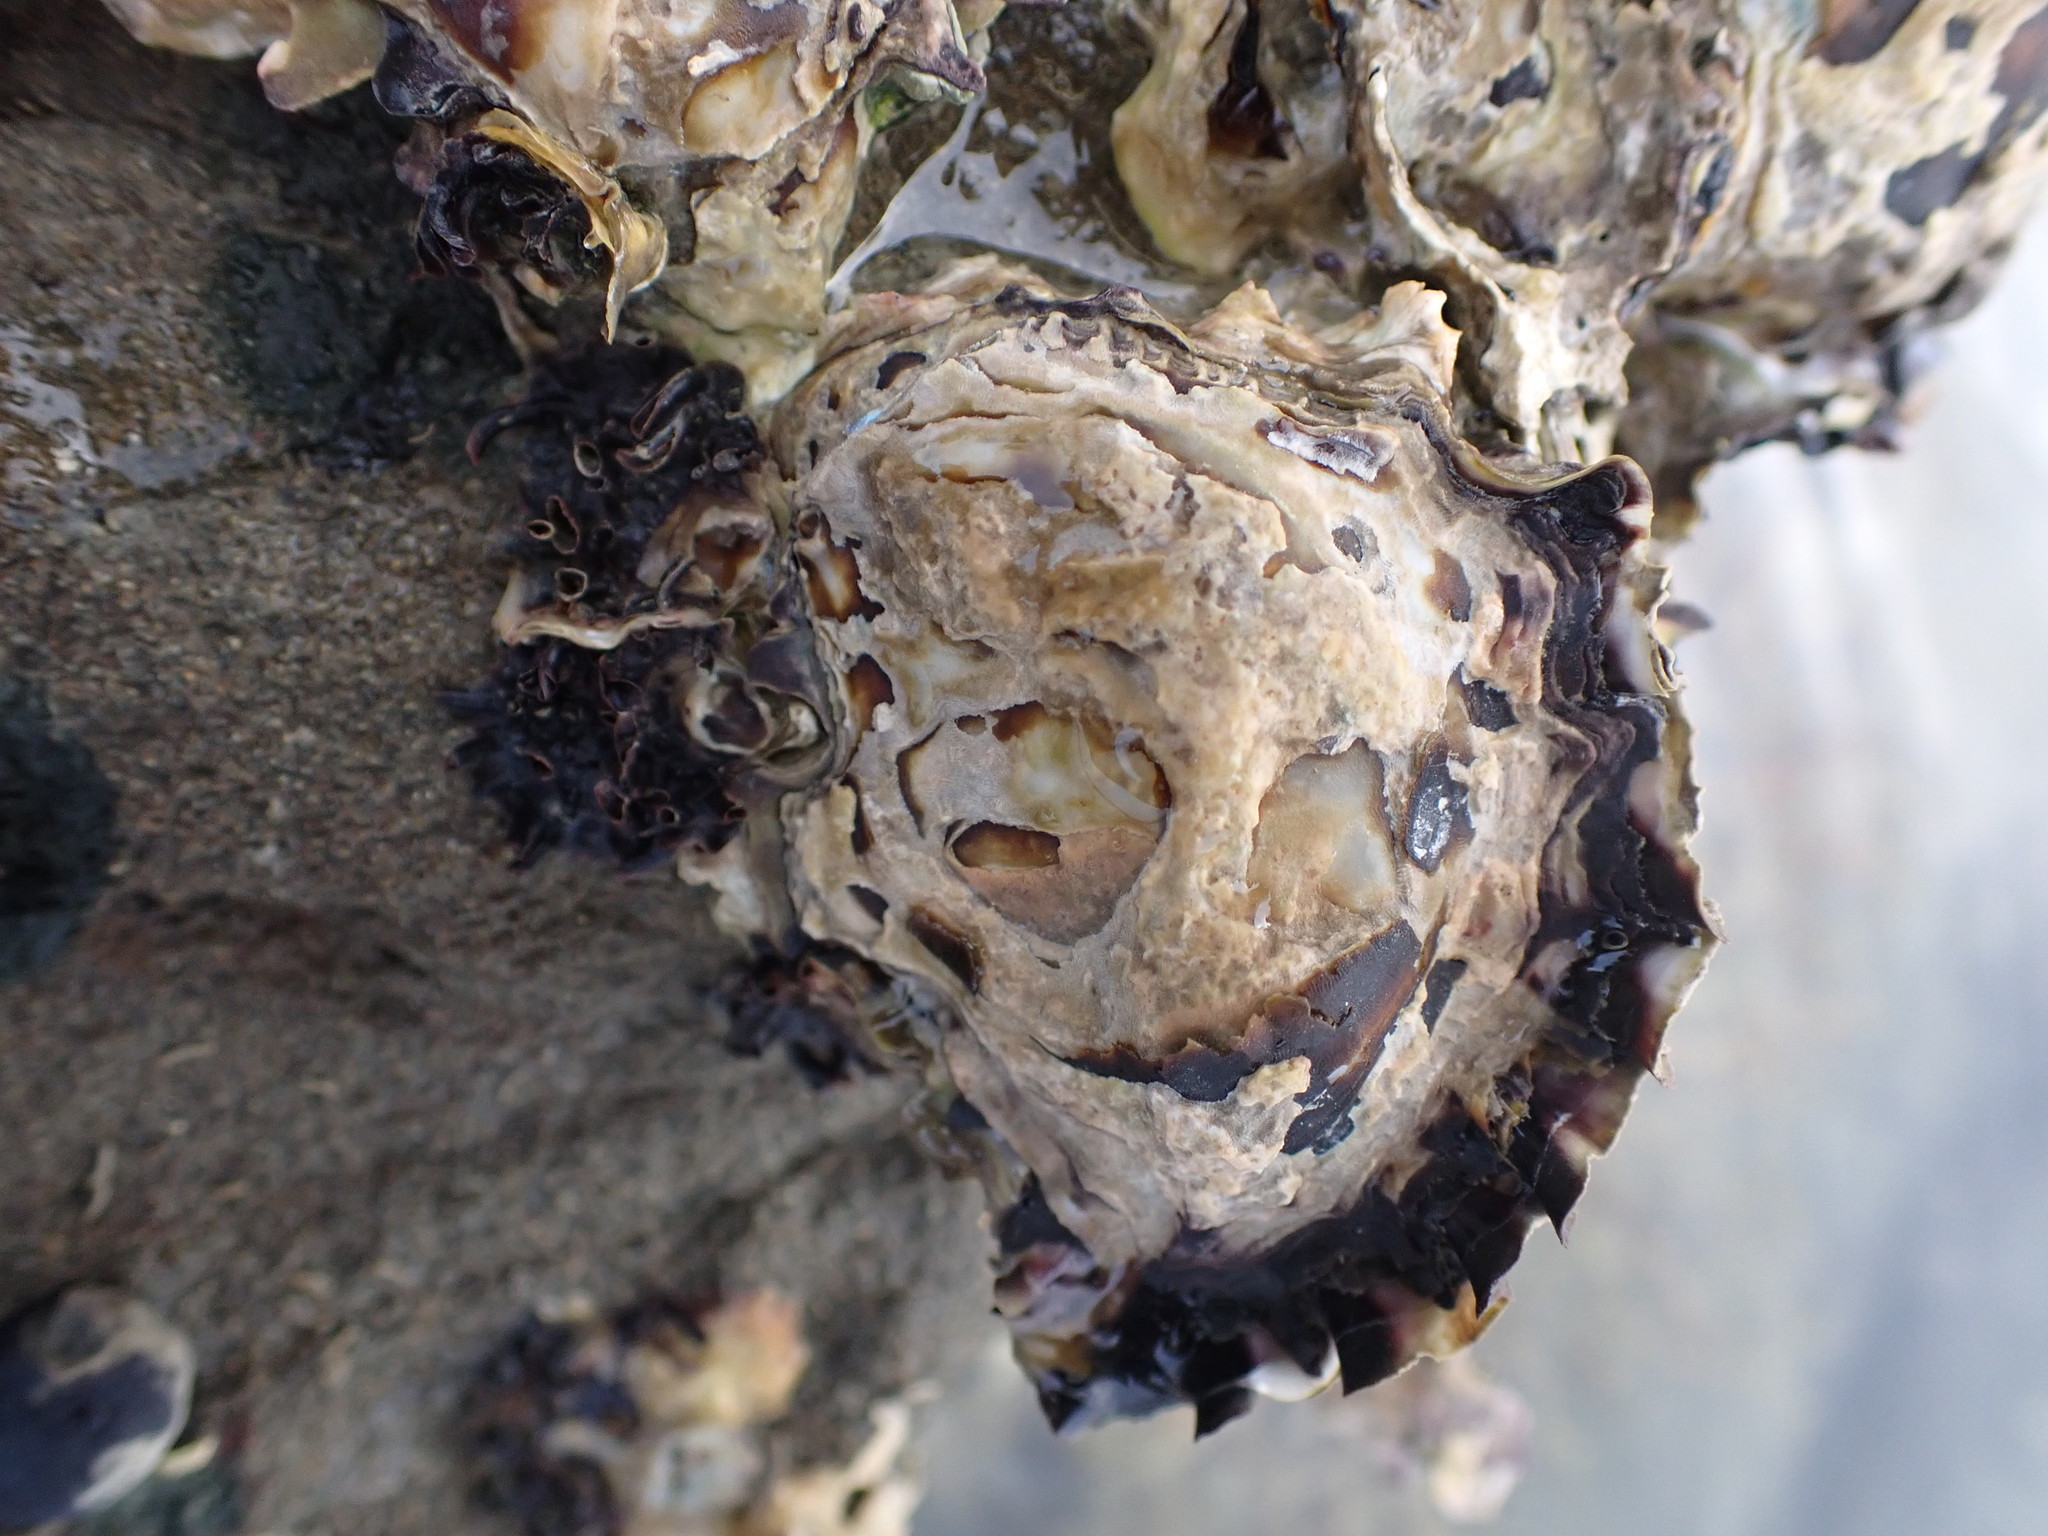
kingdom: Animalia
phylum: Mollusca
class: Bivalvia
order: Ostreida
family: Ostreidae
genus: Saccostrea
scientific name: Saccostrea glomerata
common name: Sydney cupped oyster
